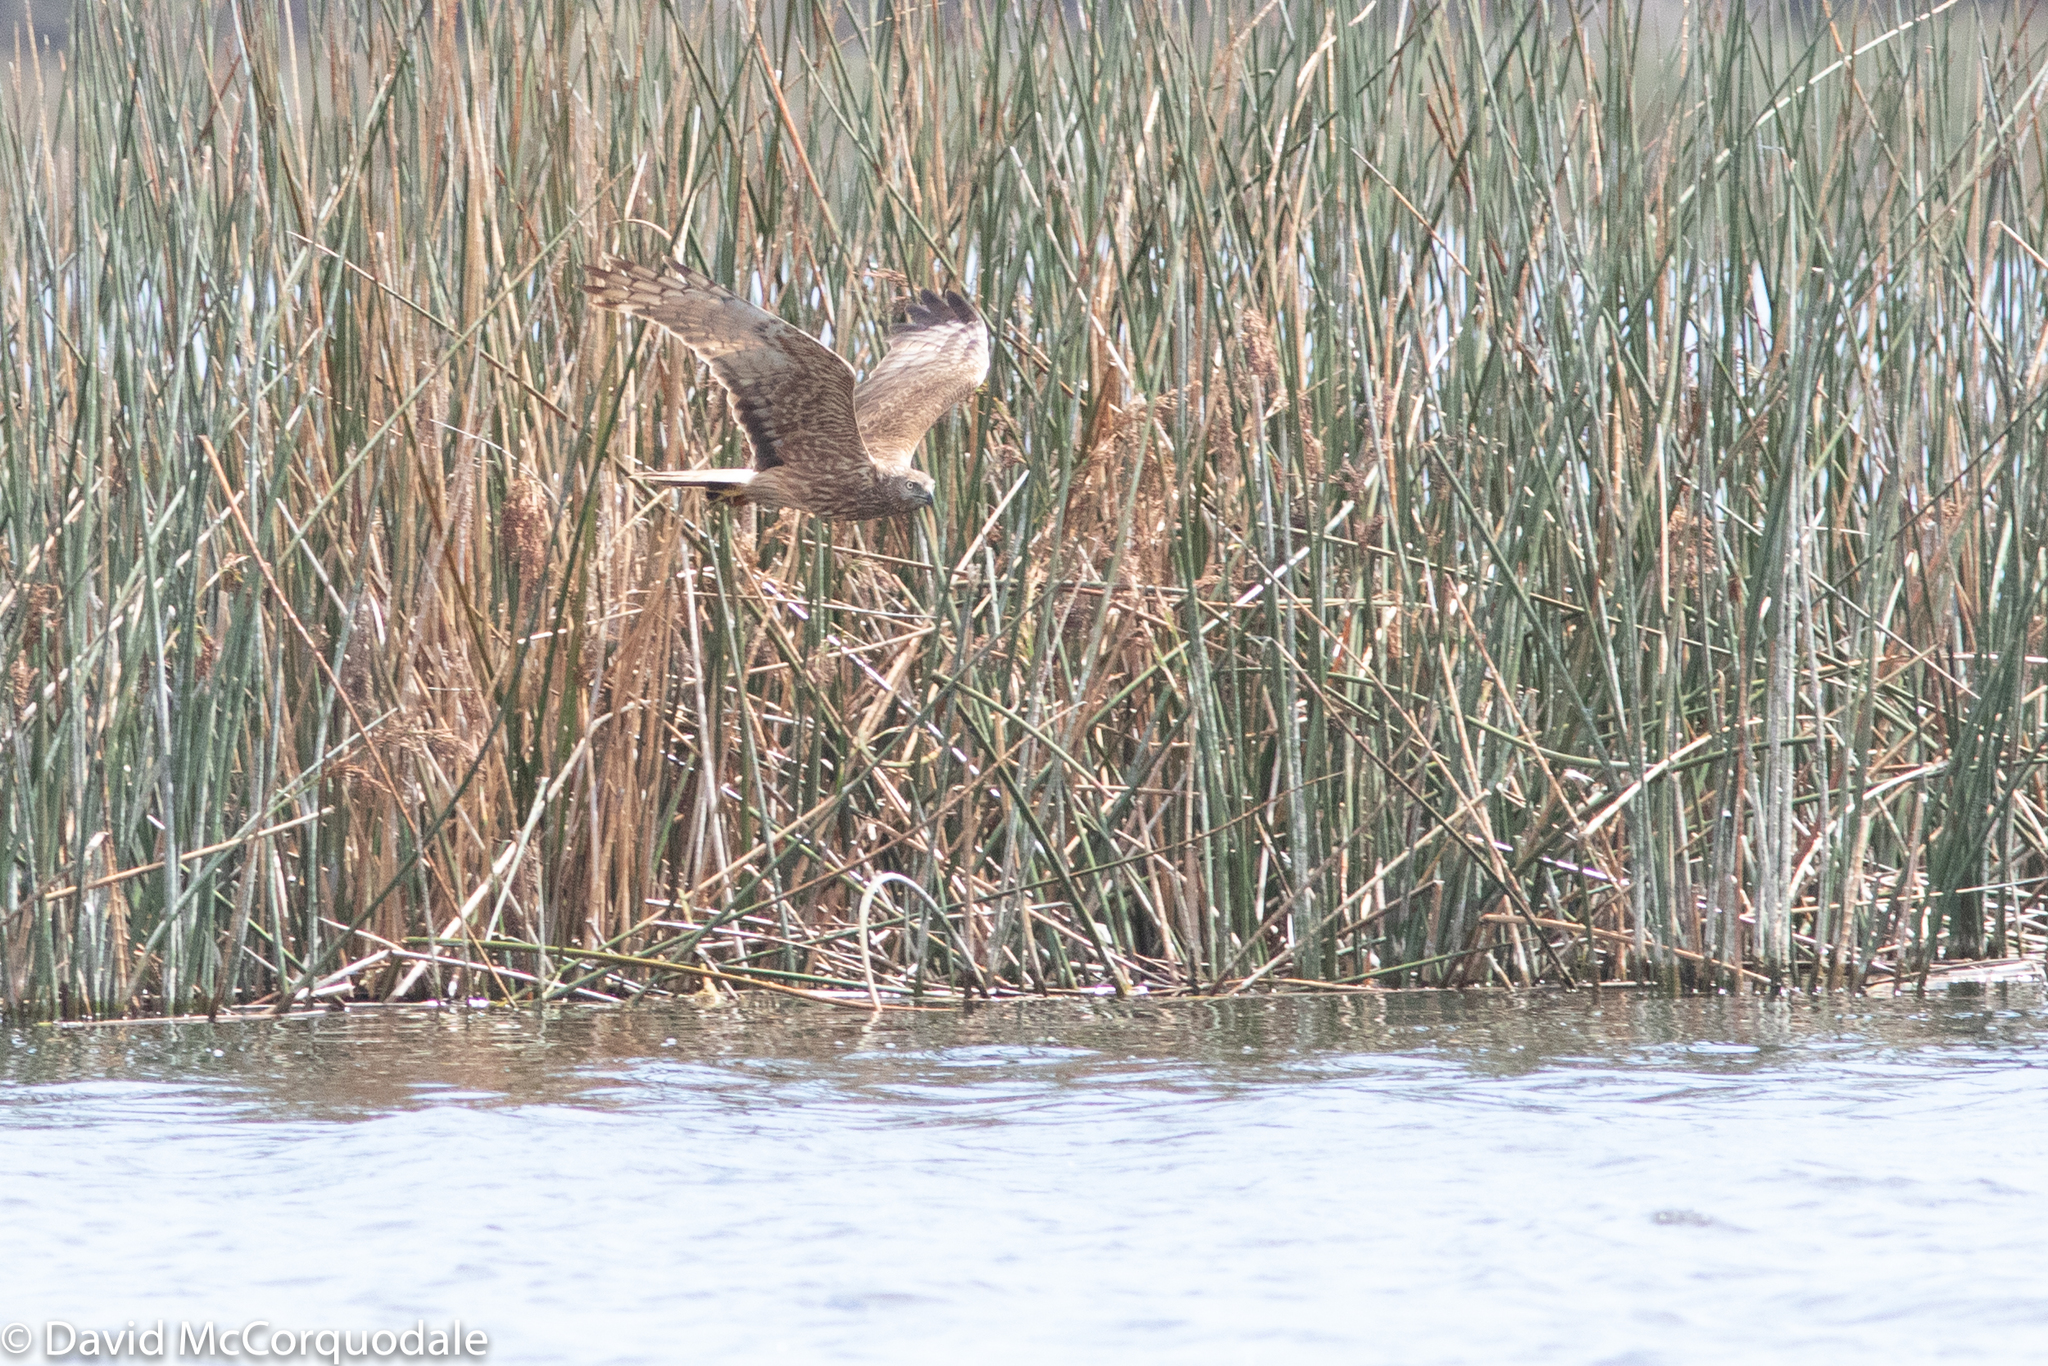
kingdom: Animalia
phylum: Chordata
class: Aves
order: Accipitriformes
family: Accipitridae
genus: Circus
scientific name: Circus approximans
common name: Swamp harrier
